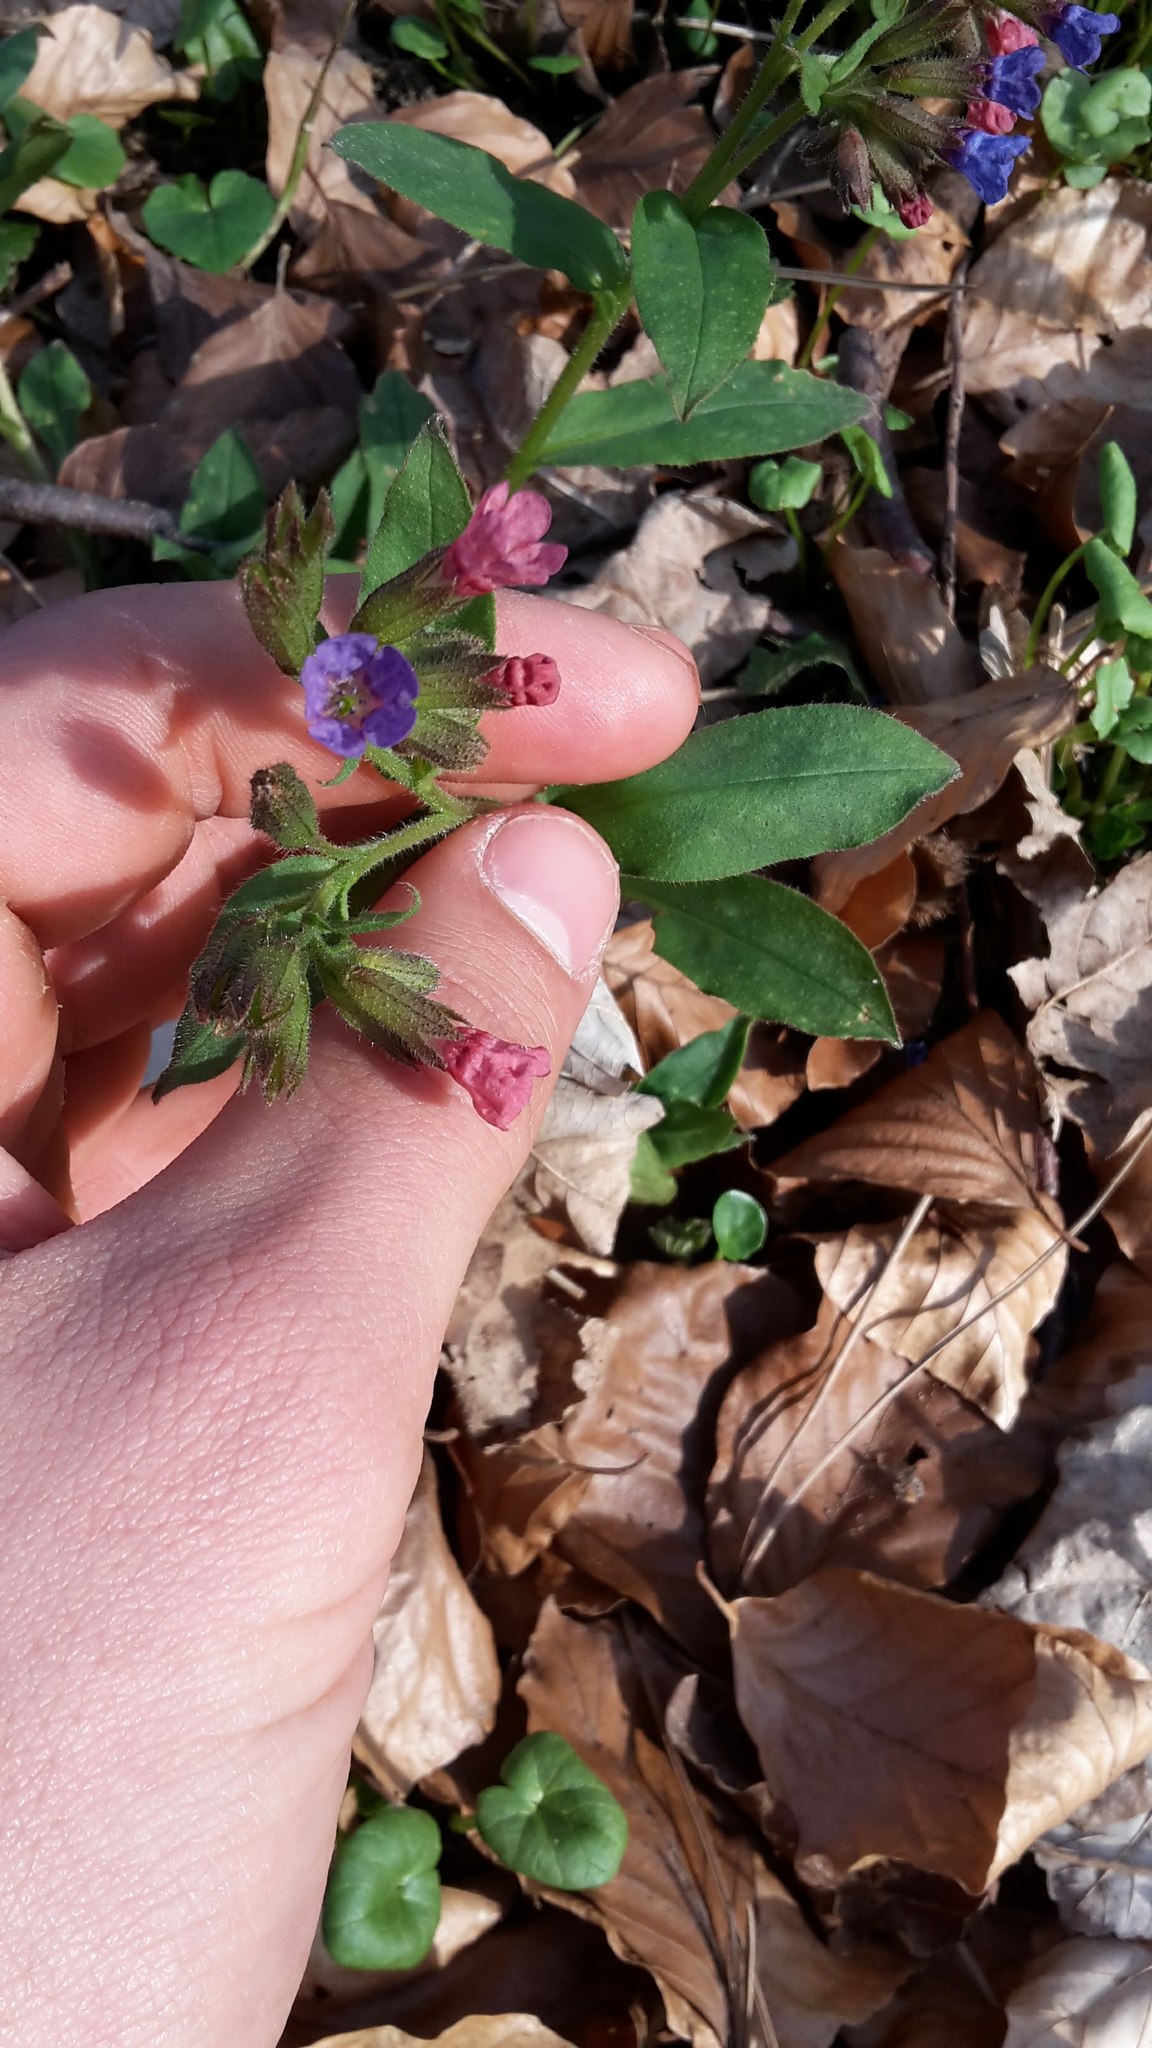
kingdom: Plantae
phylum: Tracheophyta
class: Magnoliopsida
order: Boraginales
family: Boraginaceae
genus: Pulmonaria
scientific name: Pulmonaria officinalis
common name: Lungwort
